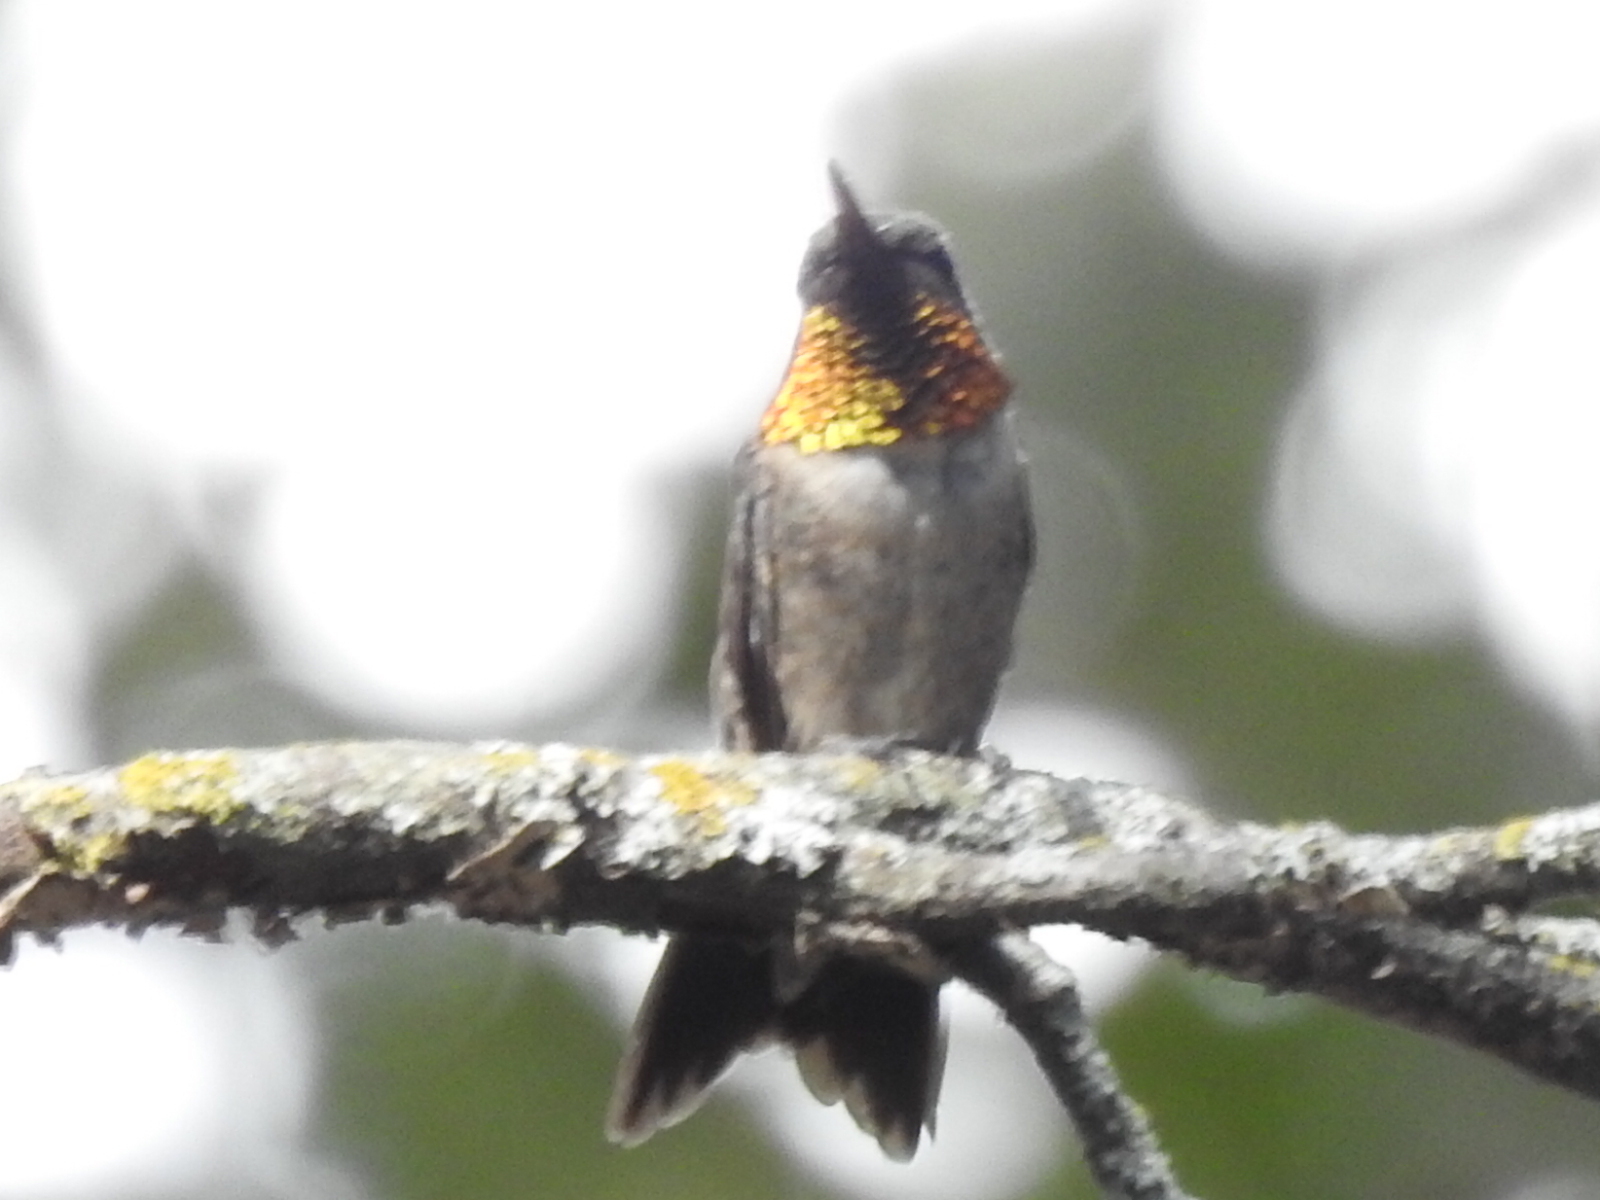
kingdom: Animalia
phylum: Chordata
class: Aves
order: Apodiformes
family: Trochilidae
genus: Archilochus
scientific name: Archilochus colubris
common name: Ruby-throated hummingbird
